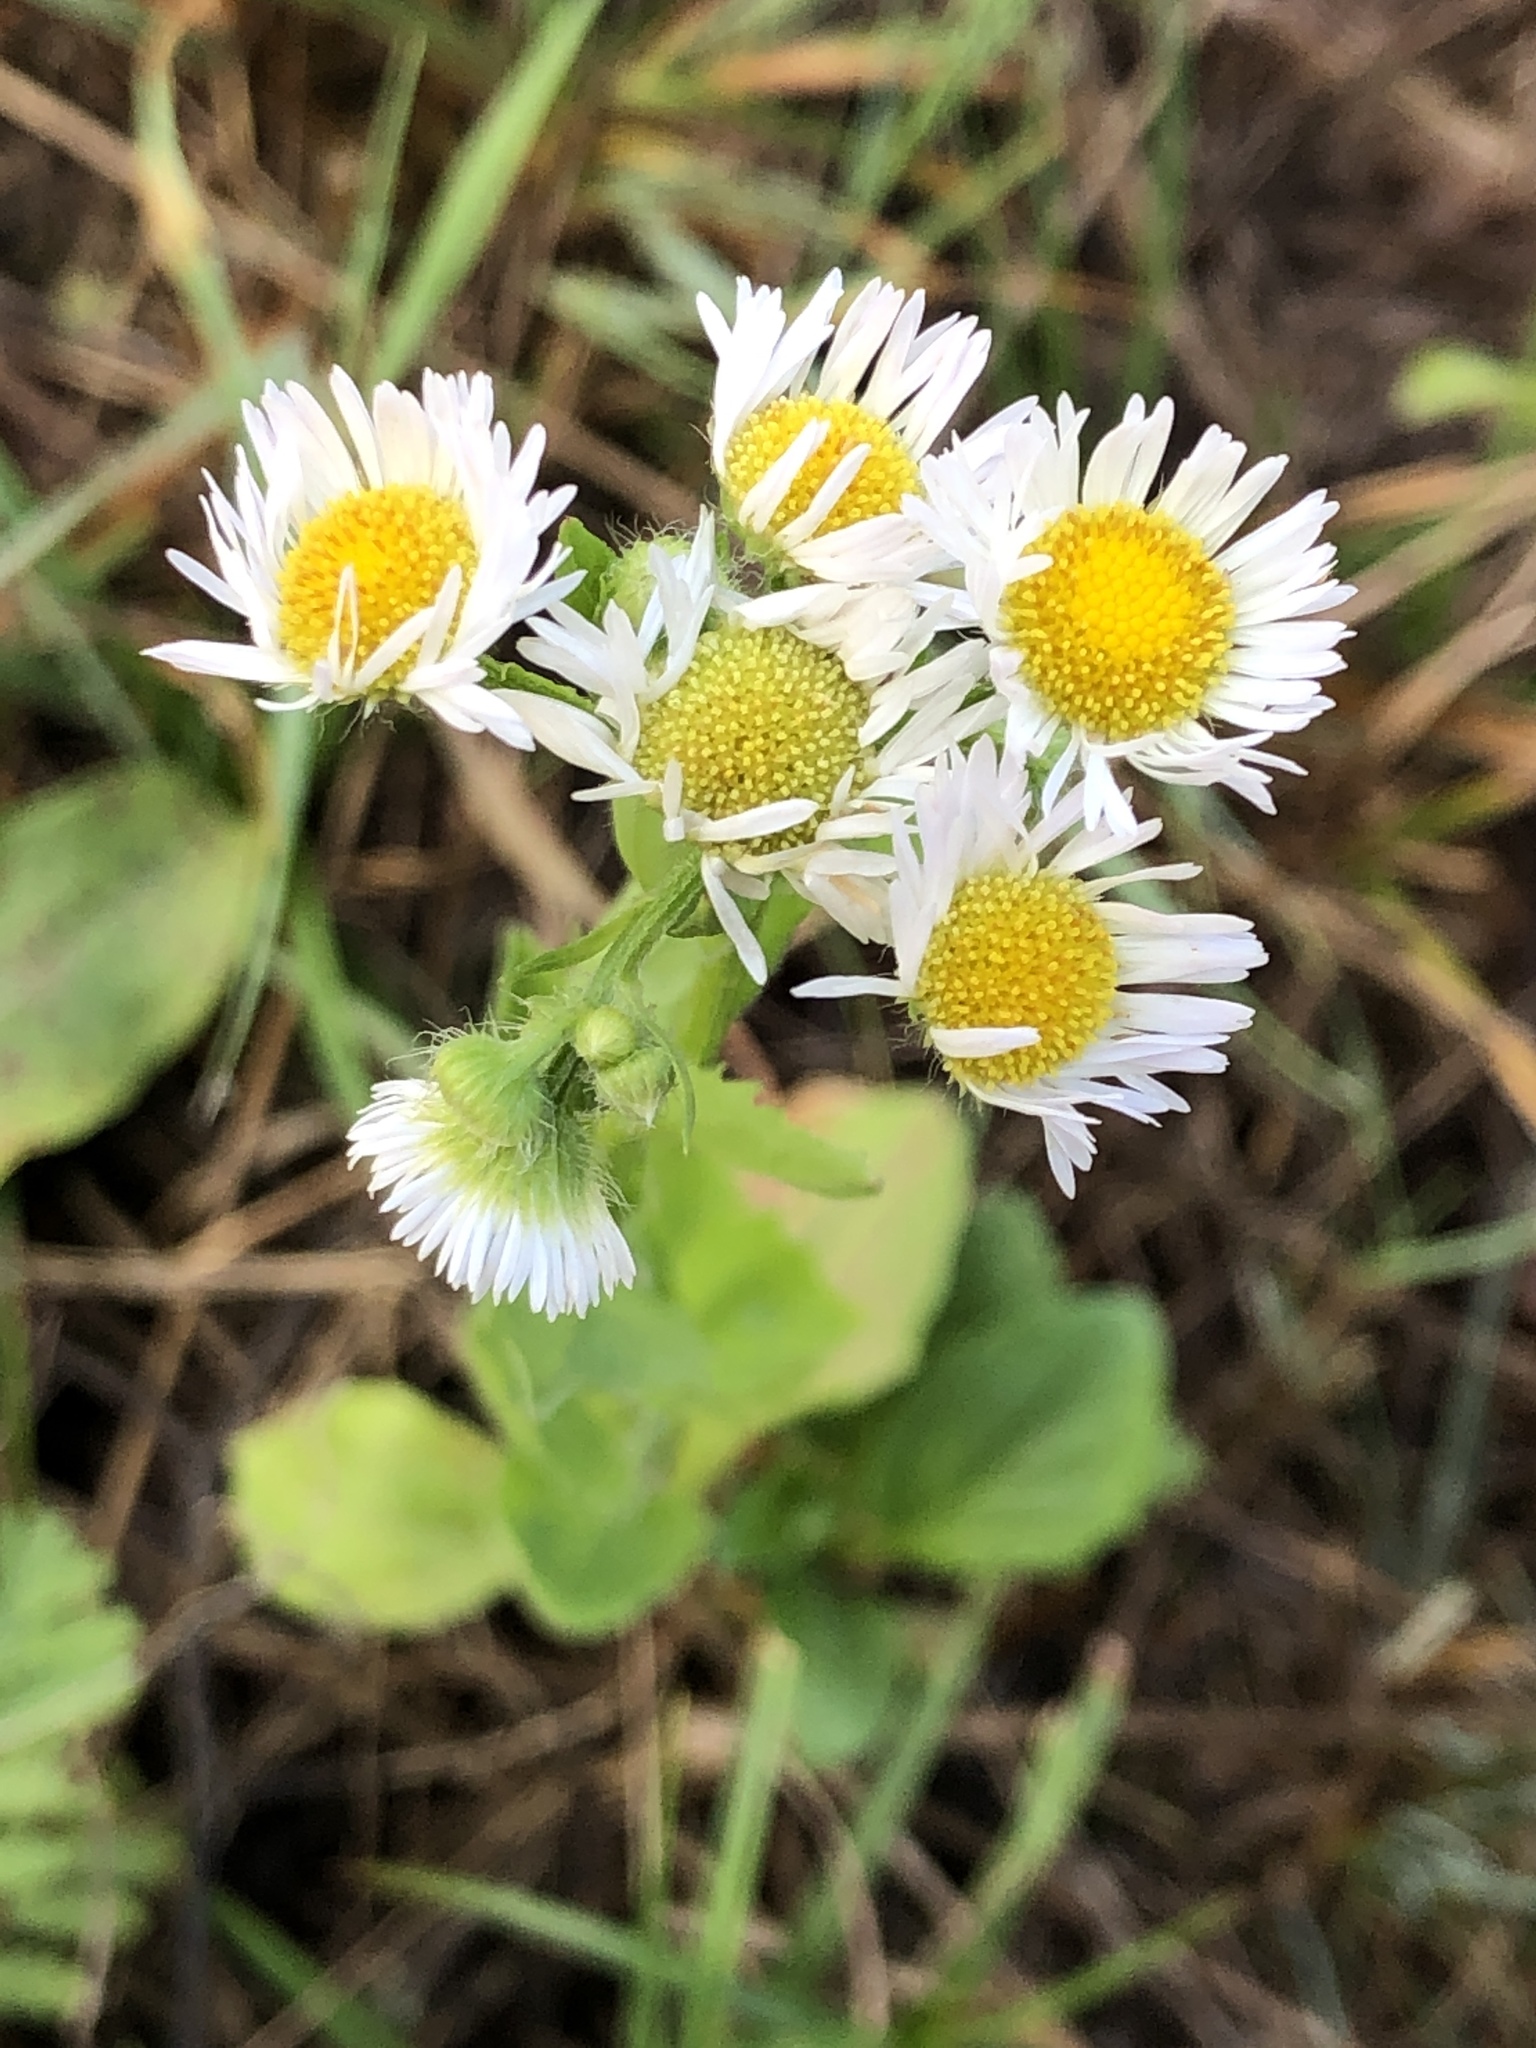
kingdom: Plantae
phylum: Tracheophyta
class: Magnoliopsida
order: Asterales
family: Asteraceae
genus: Erigeron
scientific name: Erigeron annuus
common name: Tall fleabane
